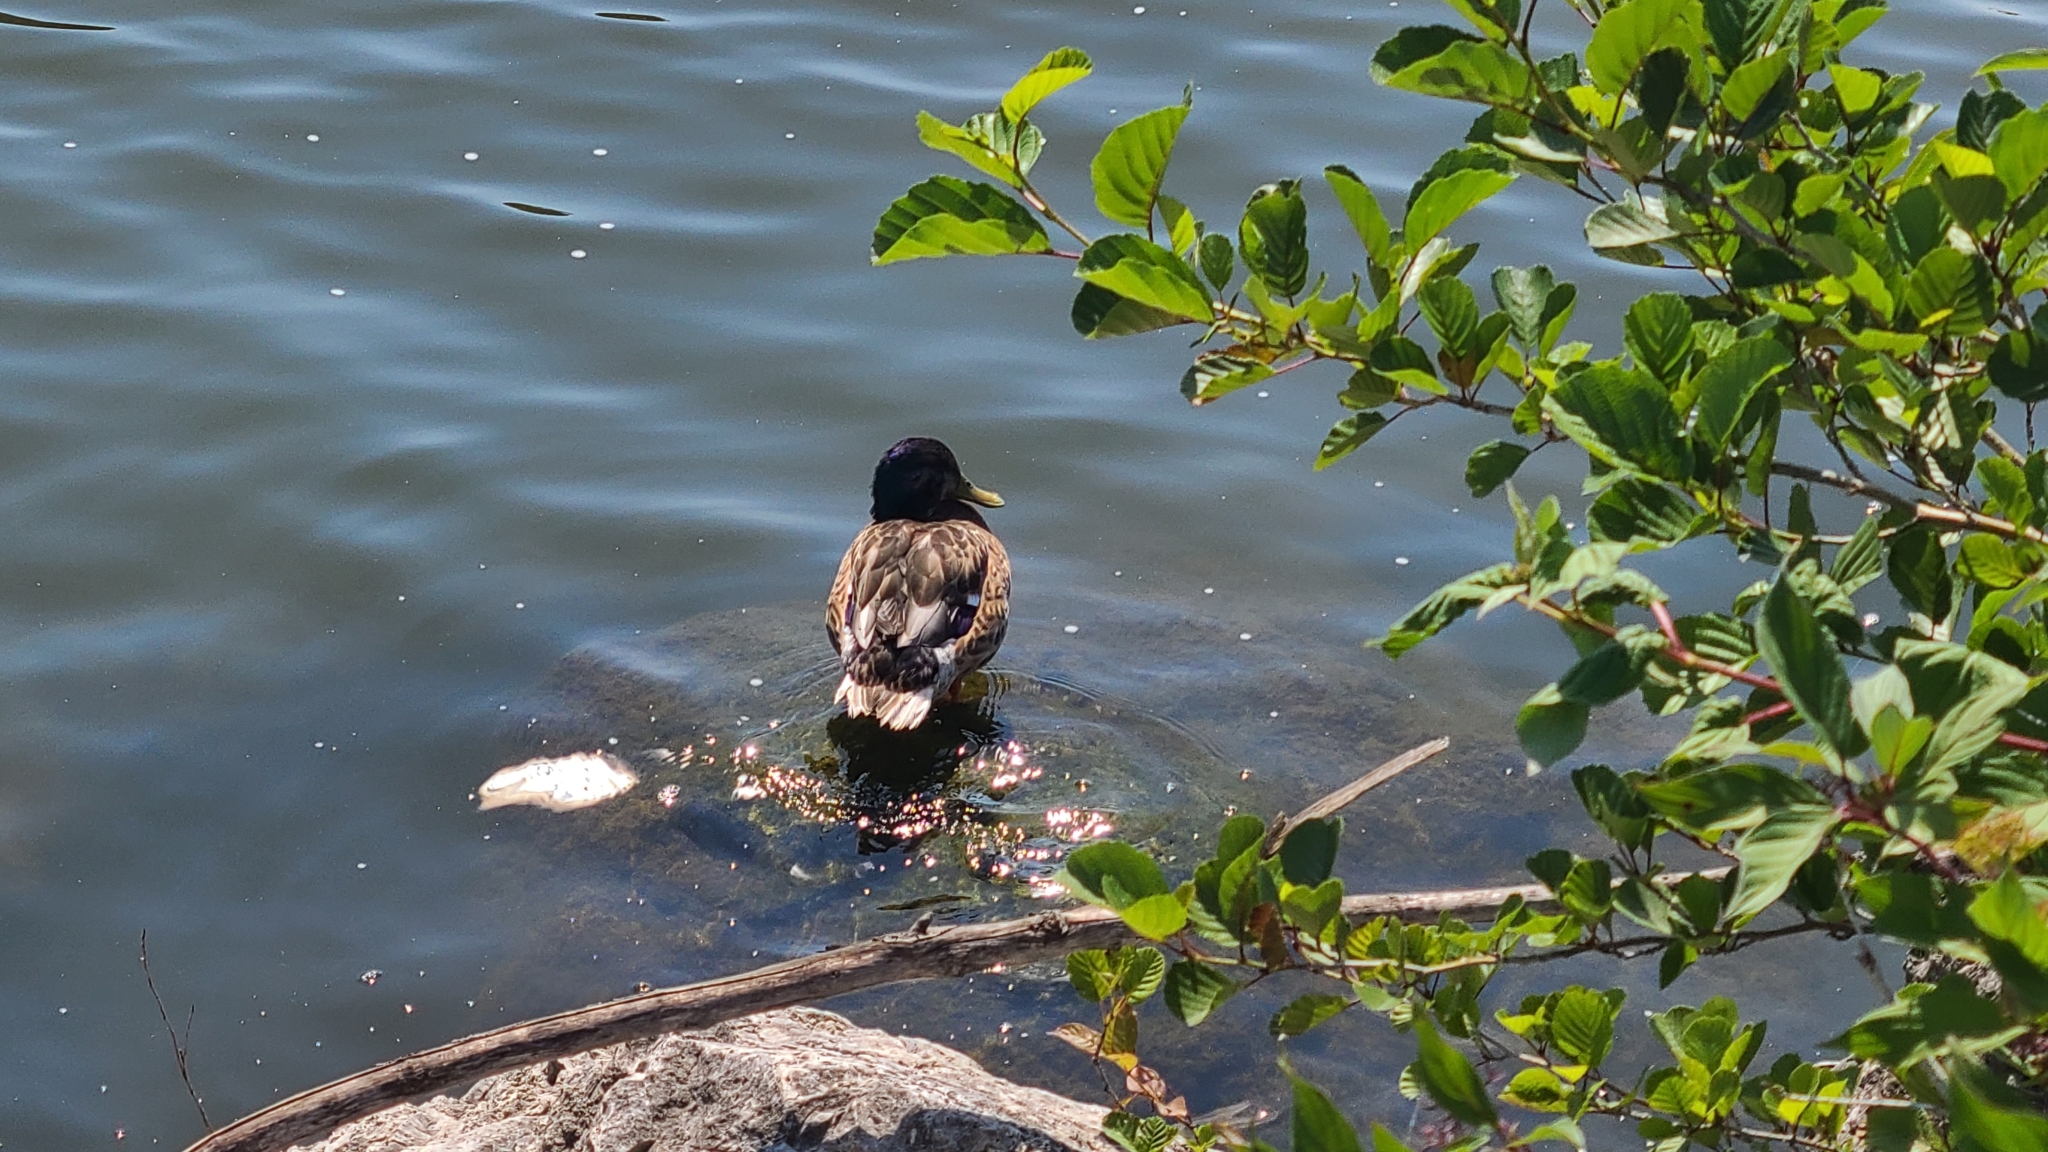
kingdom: Animalia
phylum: Chordata
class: Aves
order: Anseriformes
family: Anatidae
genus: Anas
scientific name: Anas platyrhynchos
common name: Mallard
